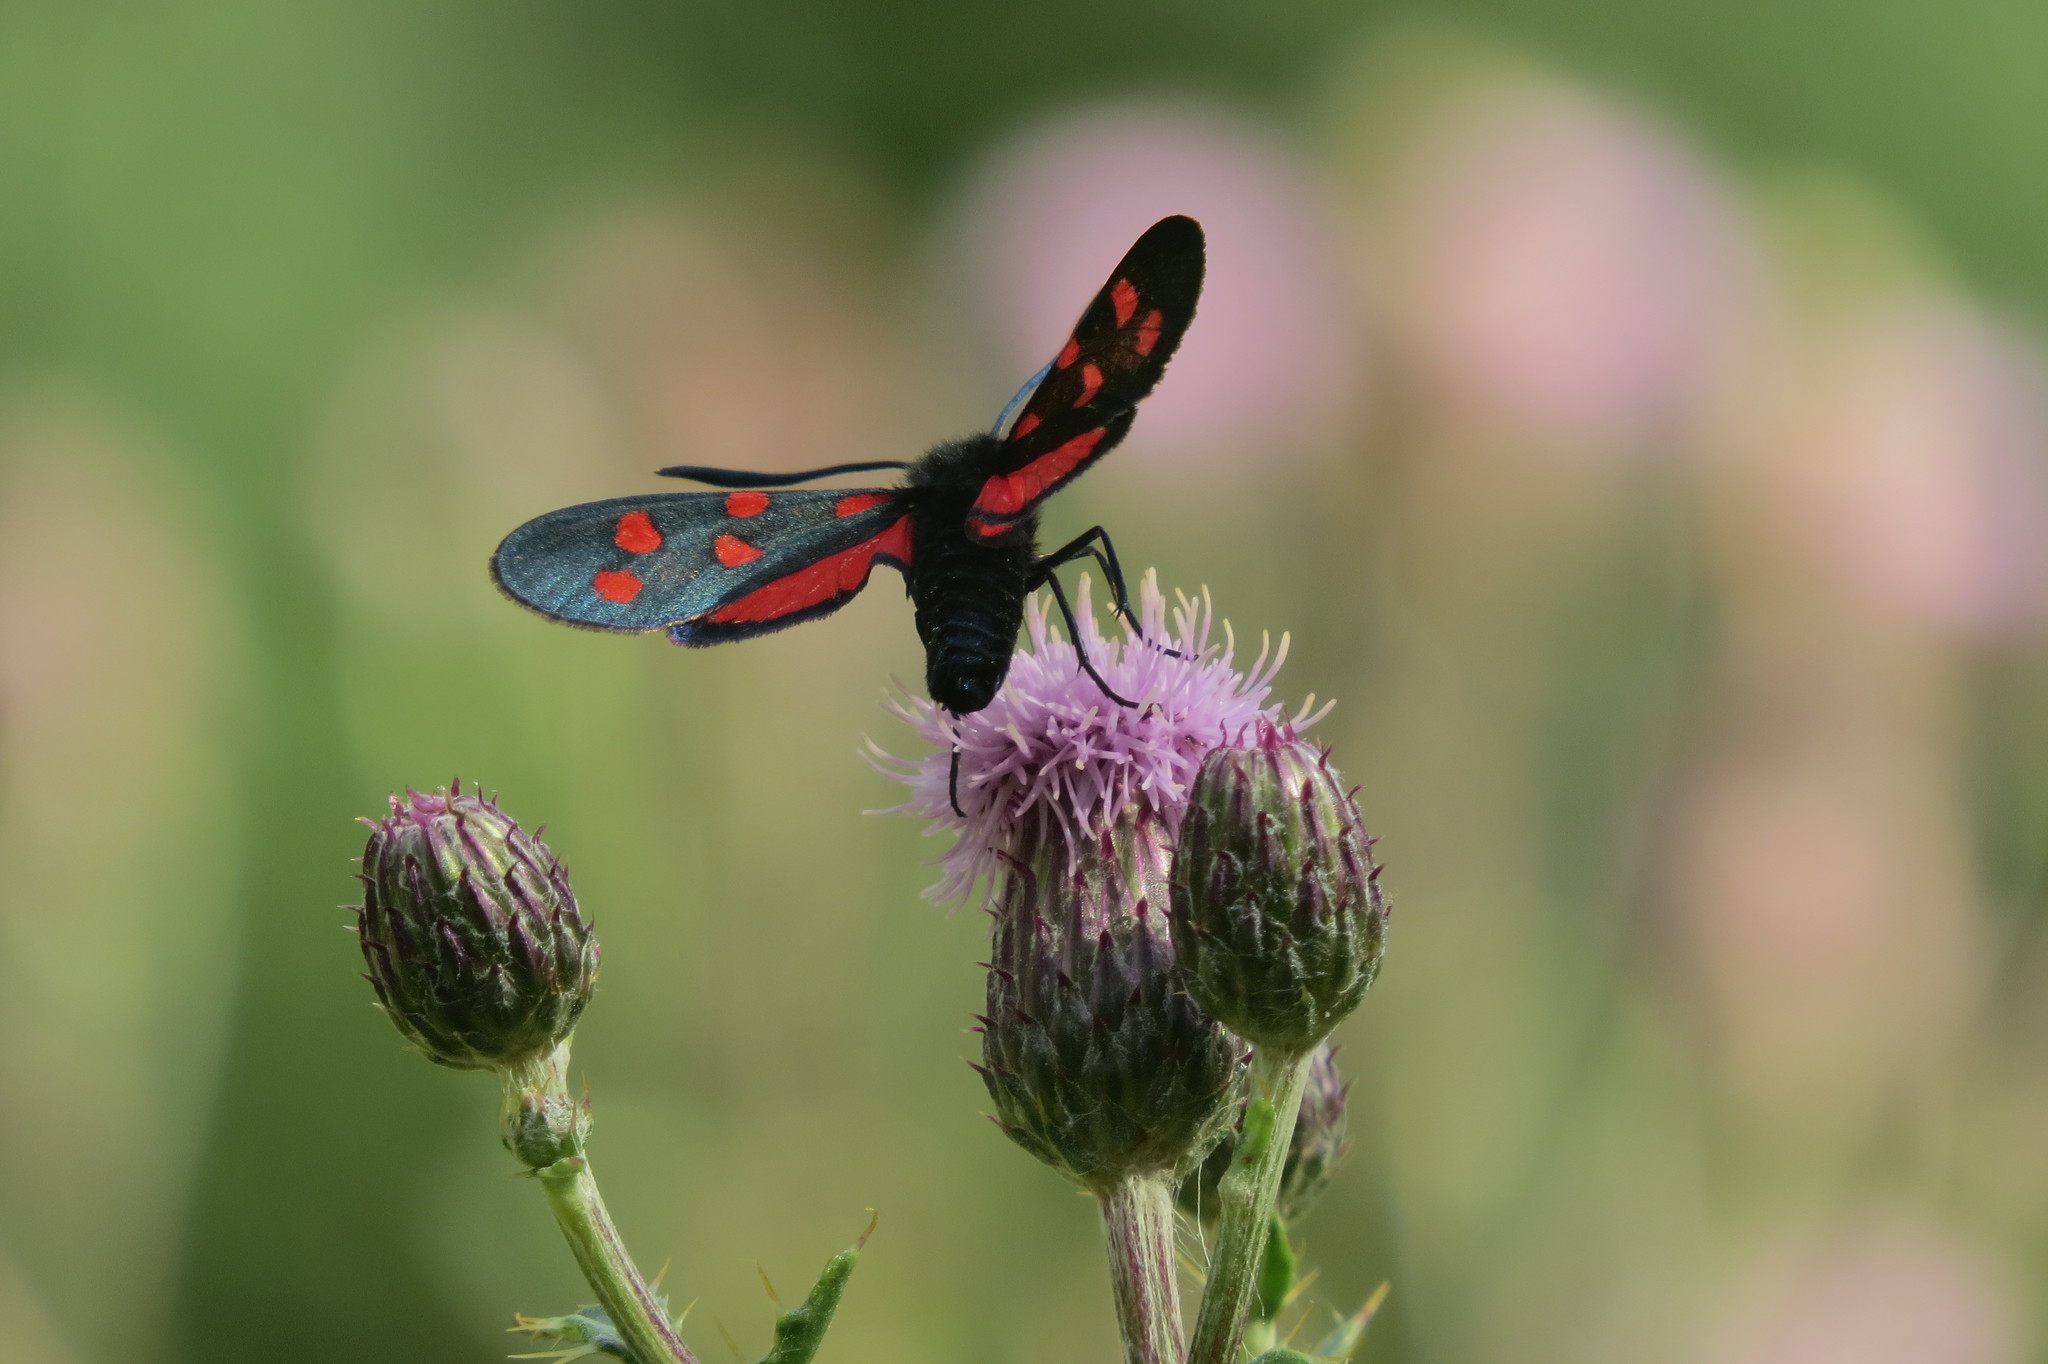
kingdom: Animalia
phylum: Arthropoda
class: Insecta
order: Lepidoptera
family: Zygaenidae
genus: Zygaena
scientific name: Zygaena transalpina
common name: Southern six spot burnet
